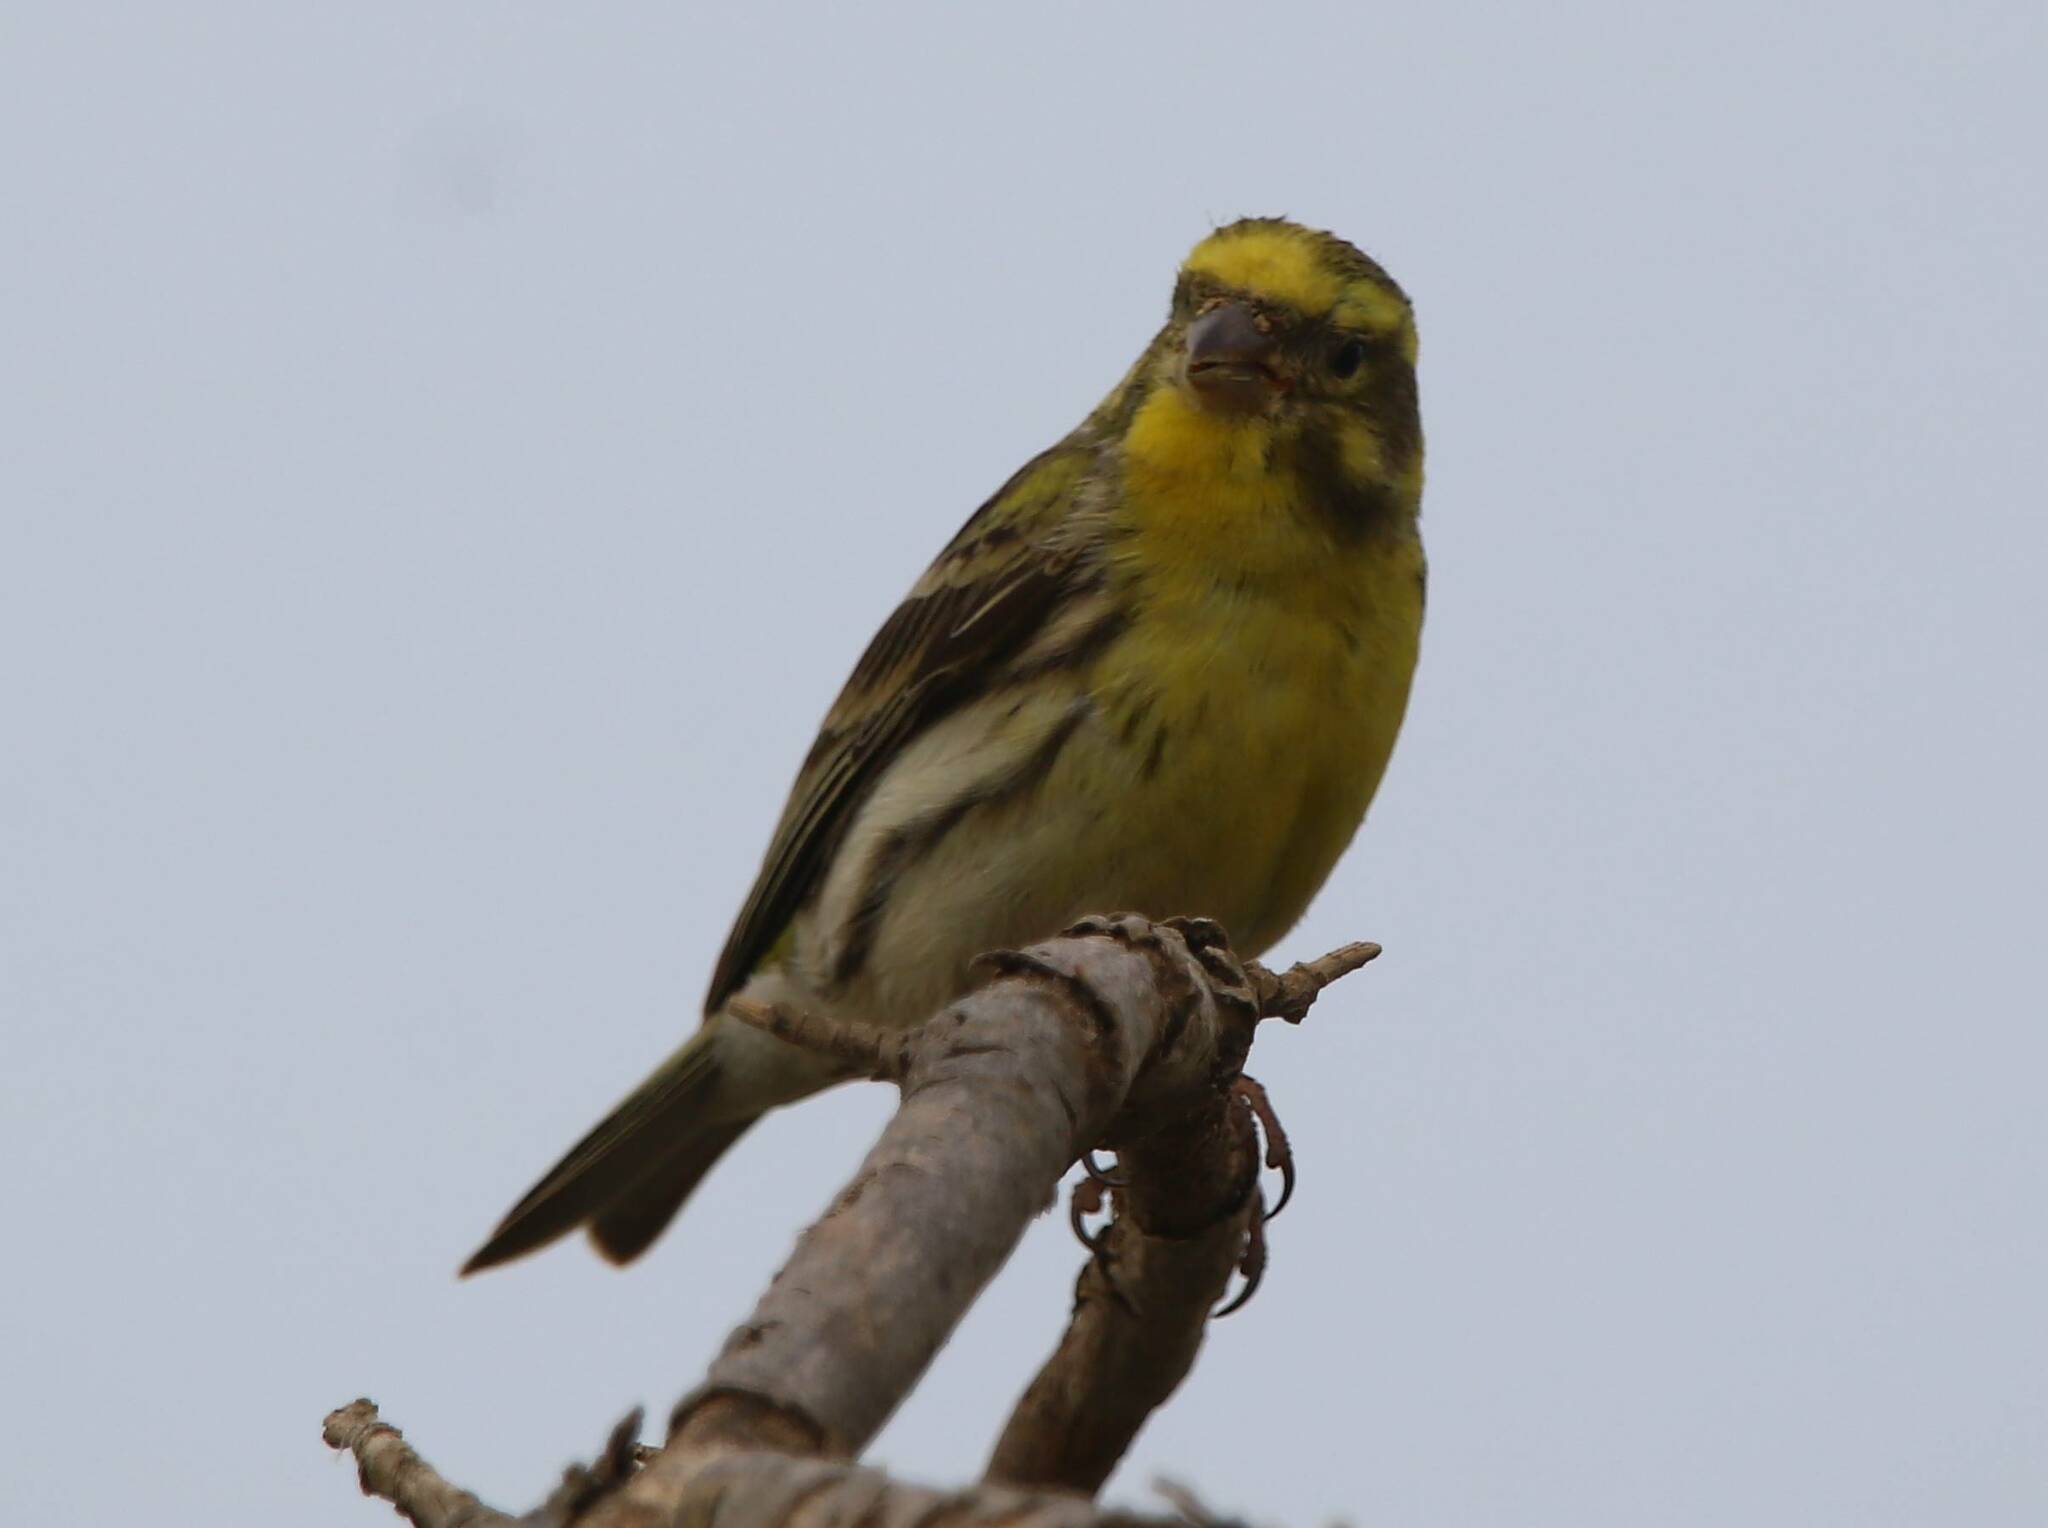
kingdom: Animalia
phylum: Chordata
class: Aves
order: Passeriformes
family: Fringillidae
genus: Serinus
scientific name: Serinus serinus
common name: European serin
